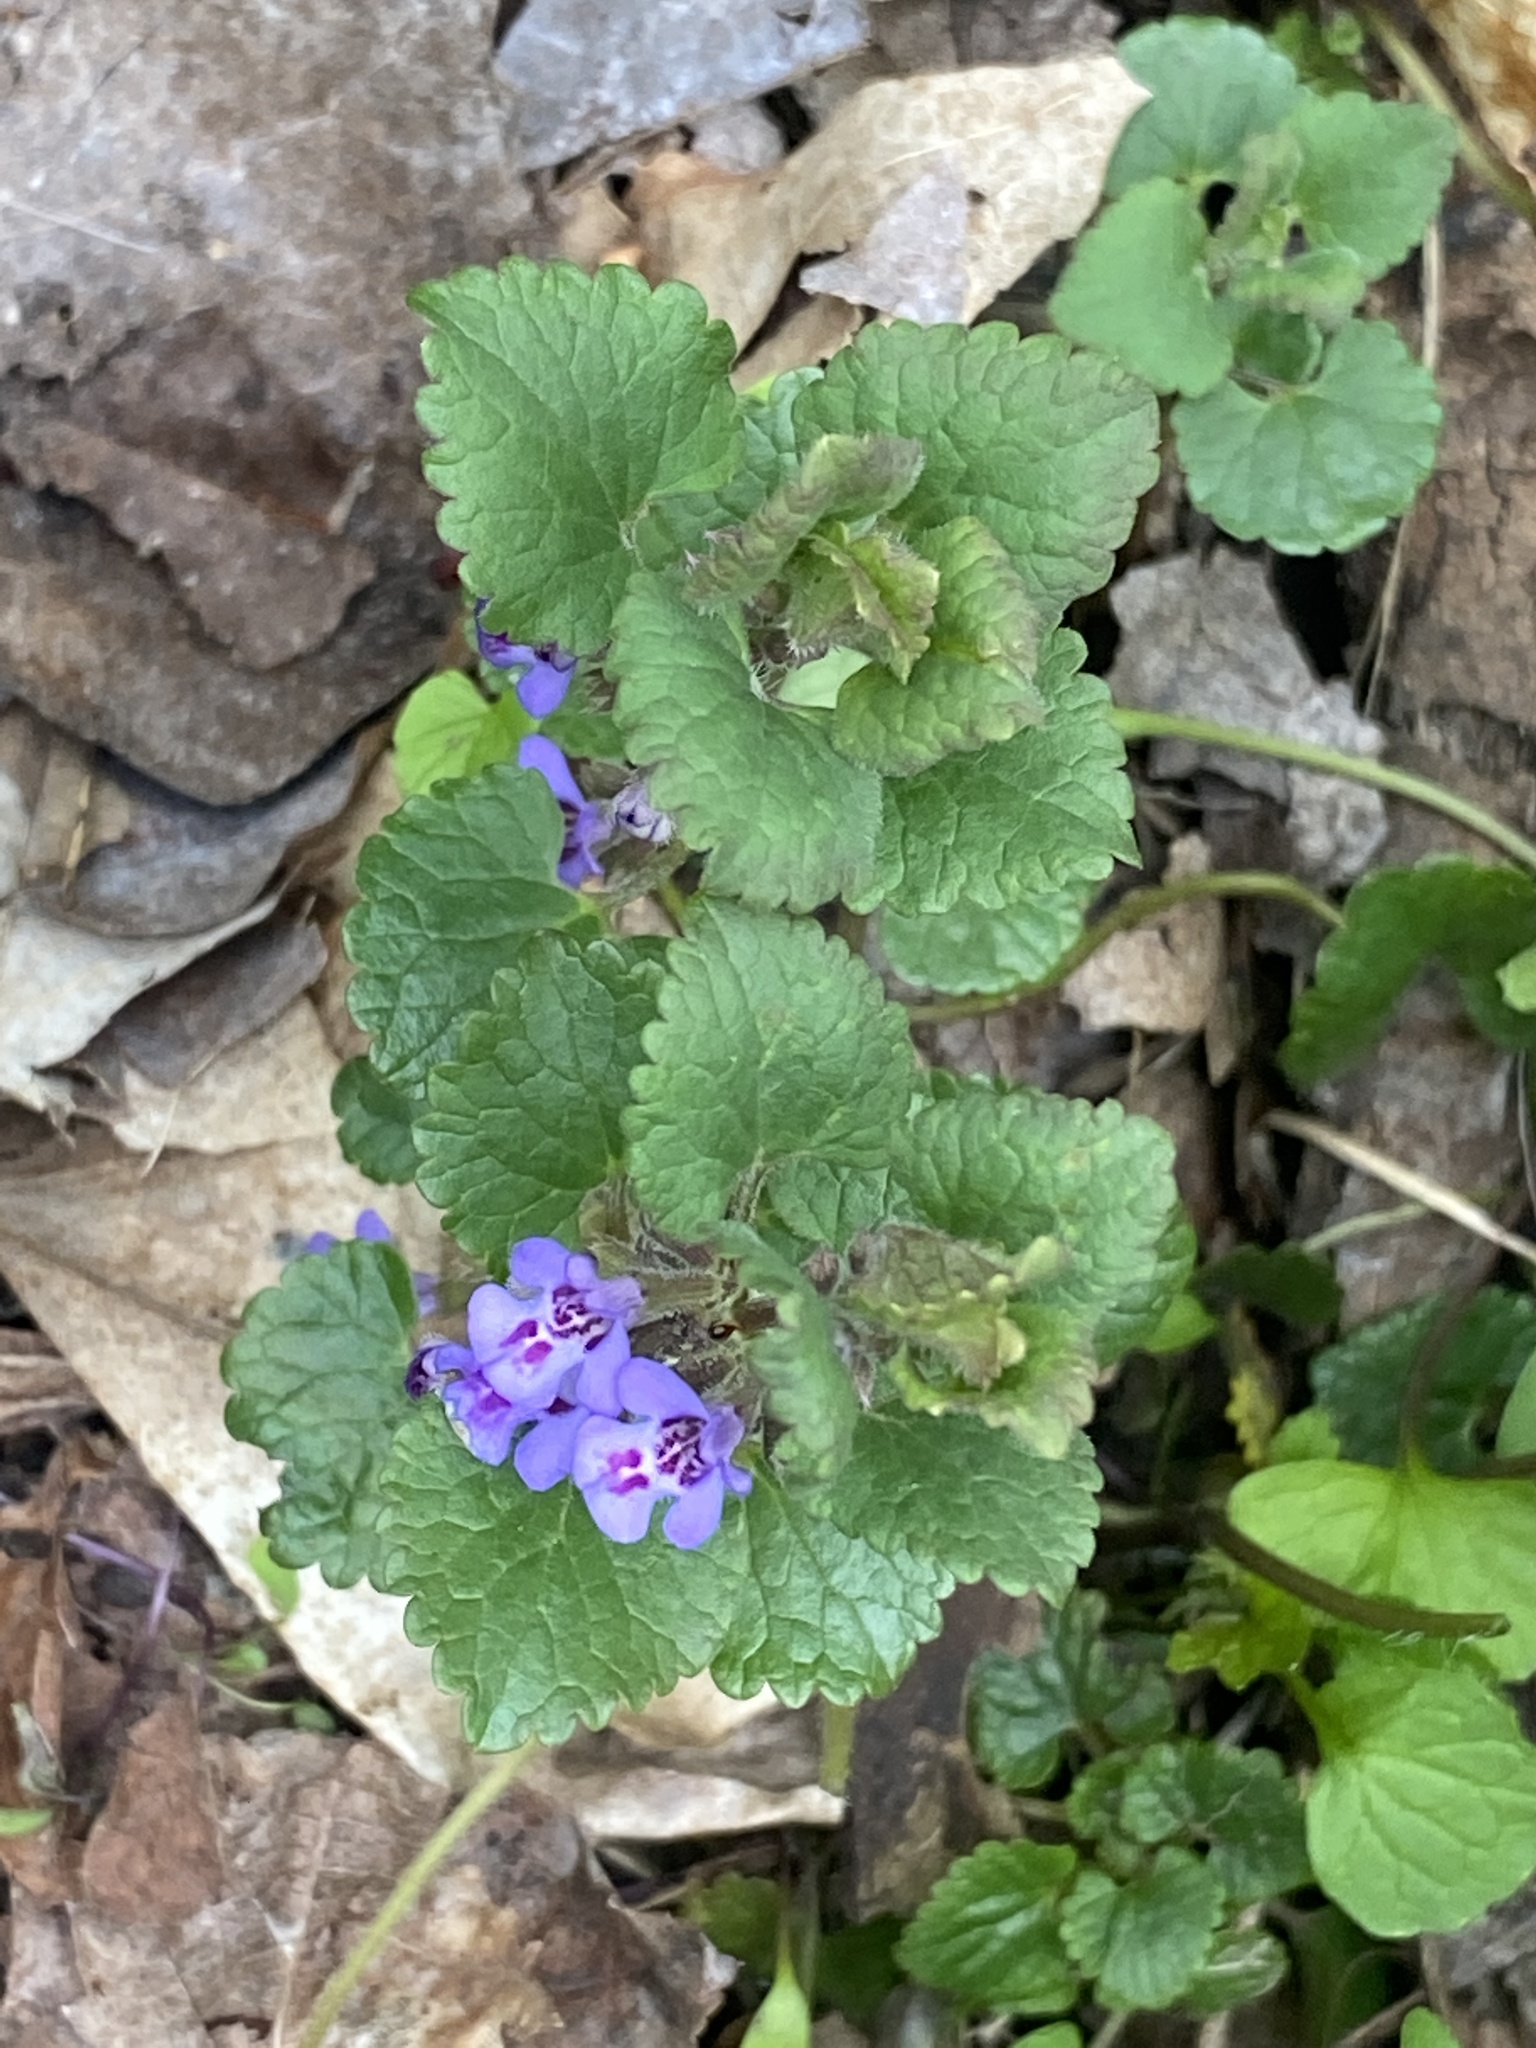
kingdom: Plantae
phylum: Tracheophyta
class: Magnoliopsida
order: Lamiales
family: Lamiaceae
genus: Glechoma
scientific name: Glechoma hederacea
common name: Ground ivy
